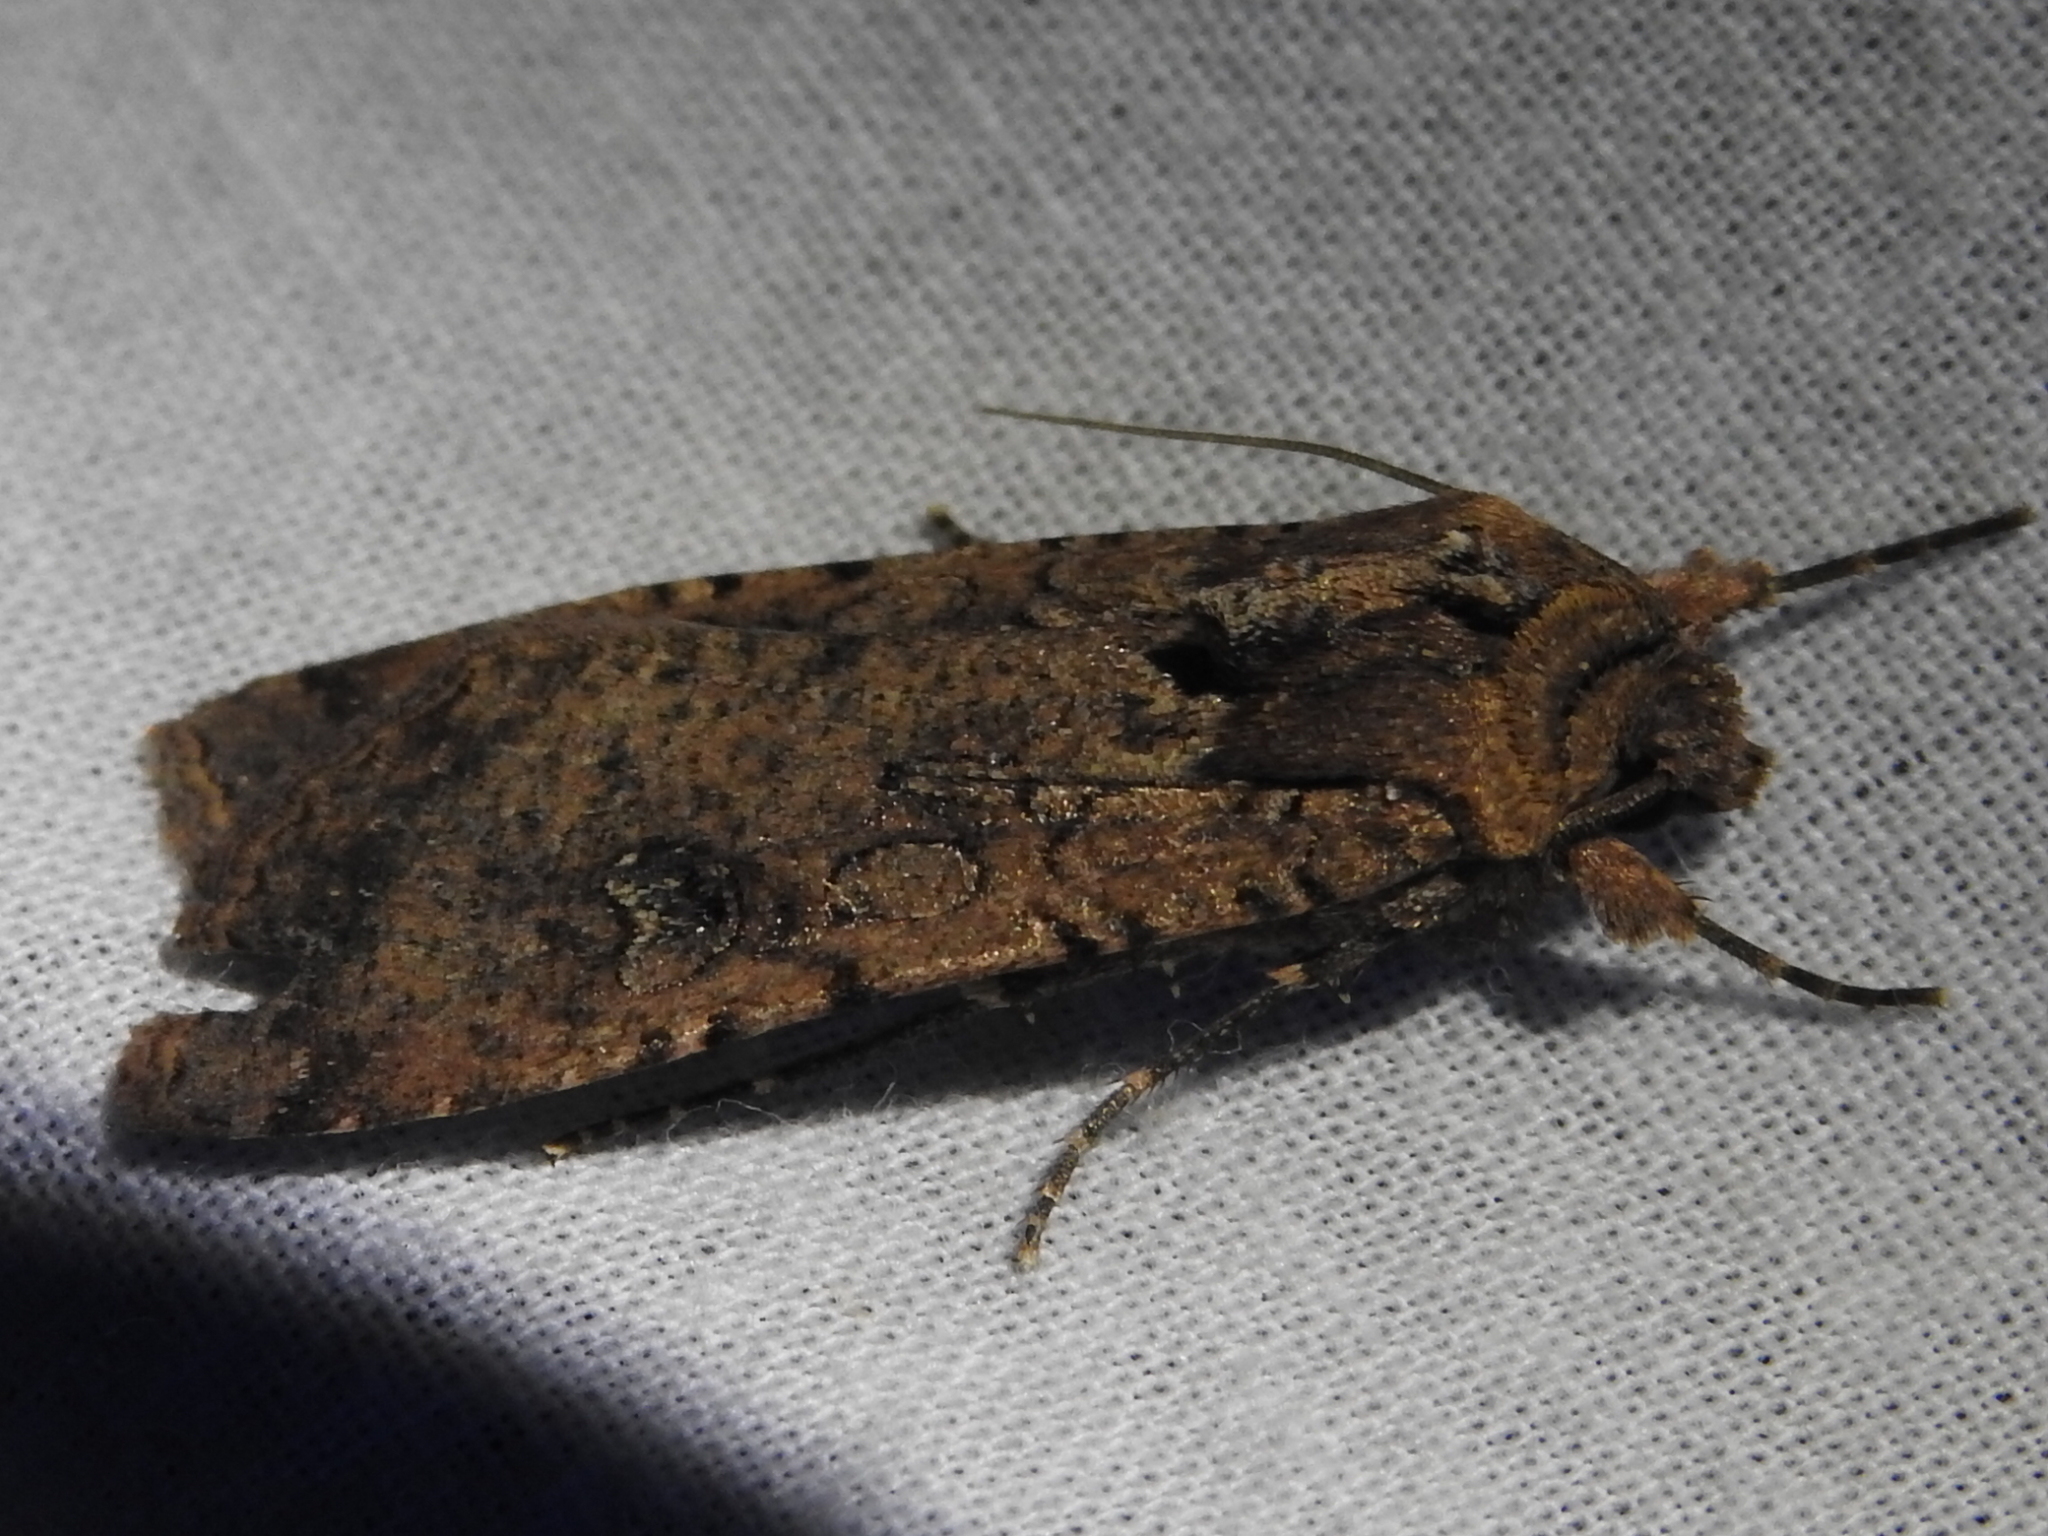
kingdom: Animalia
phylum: Arthropoda
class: Insecta
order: Lepidoptera
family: Noctuidae
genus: Peridroma
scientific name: Peridroma saucia
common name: Pearly underwing
